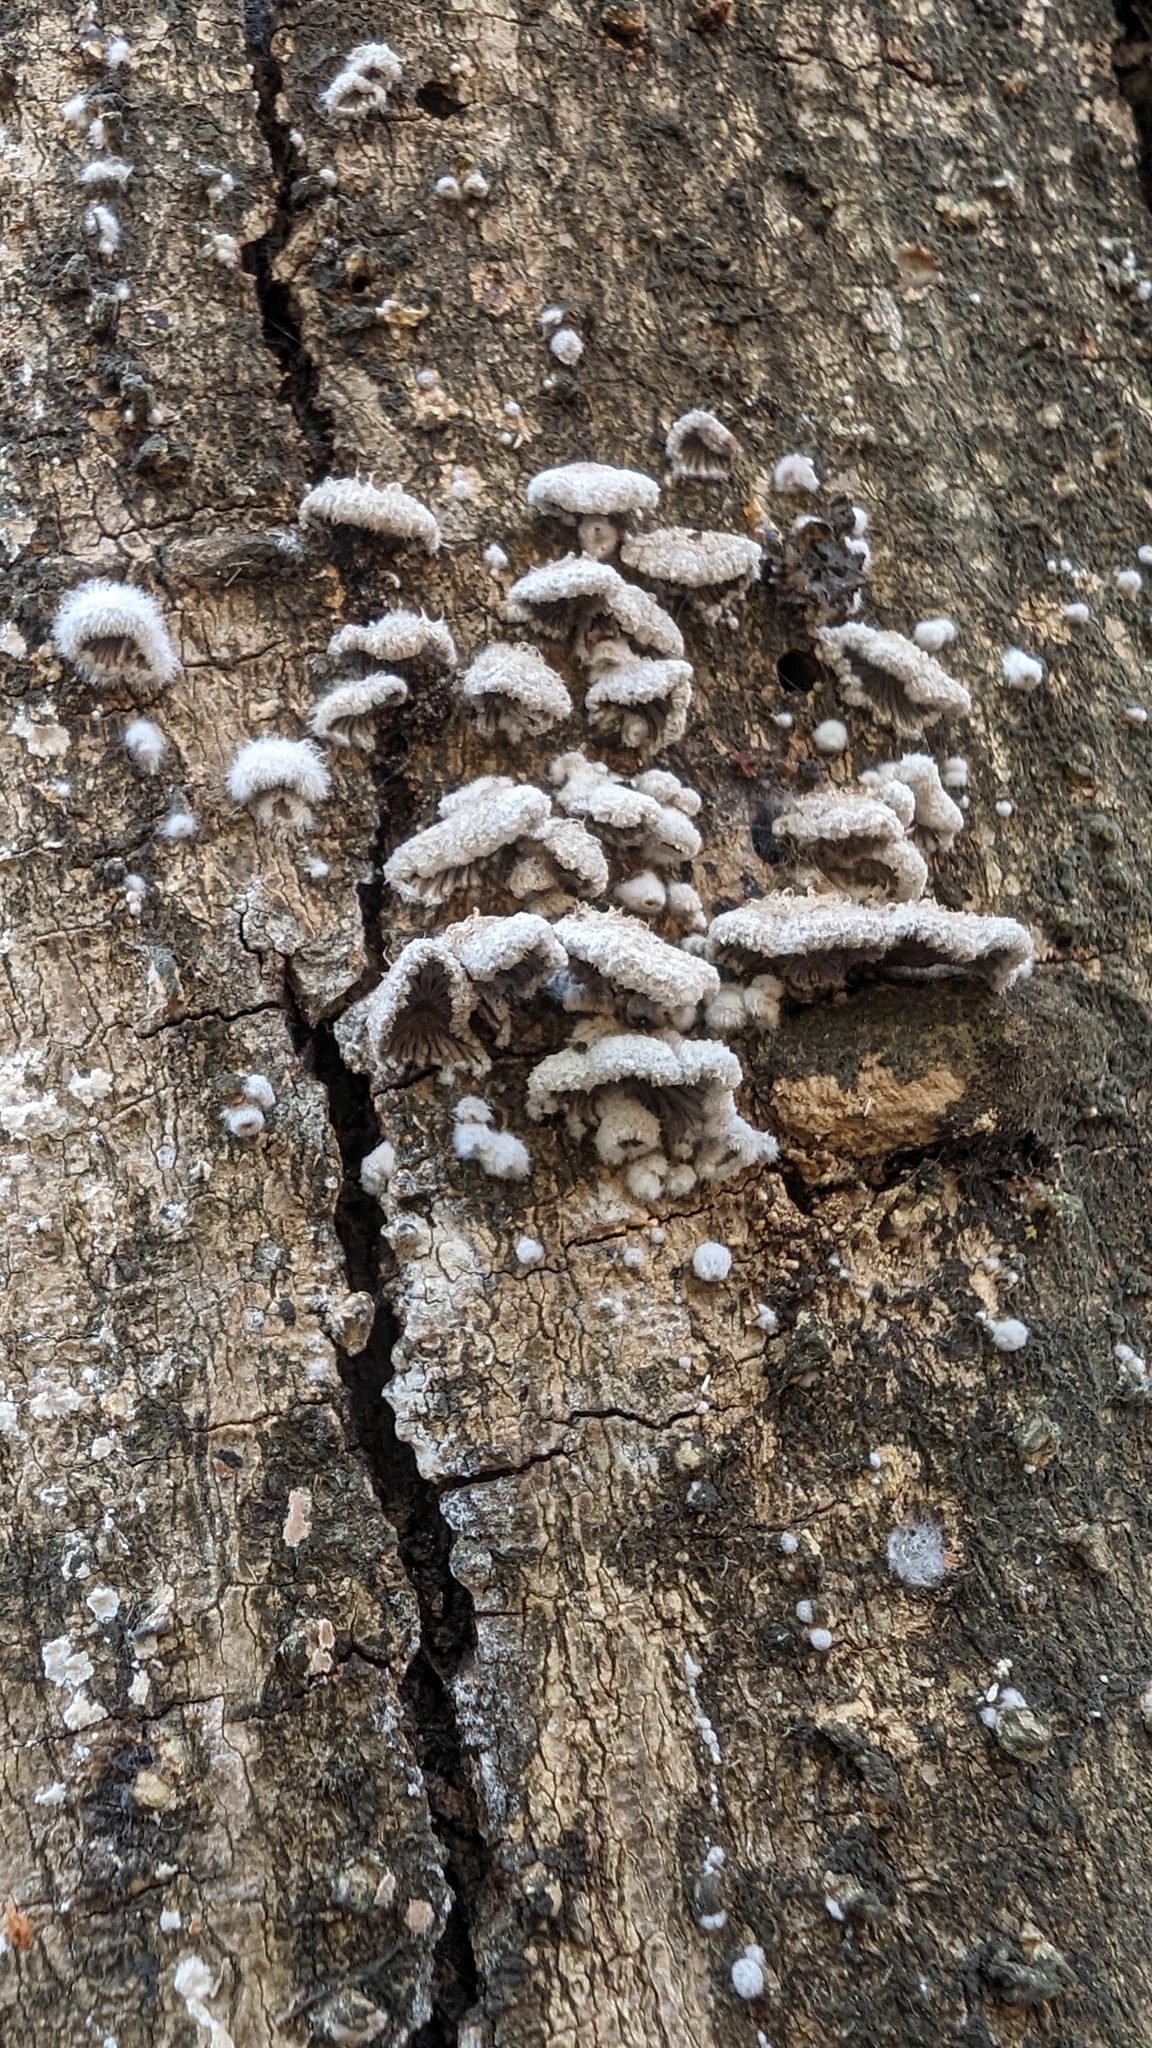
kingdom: Fungi
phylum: Basidiomycota
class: Agaricomycetes
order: Agaricales
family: Schizophyllaceae
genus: Schizophyllum
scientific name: Schizophyllum commune
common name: Common porecrust
